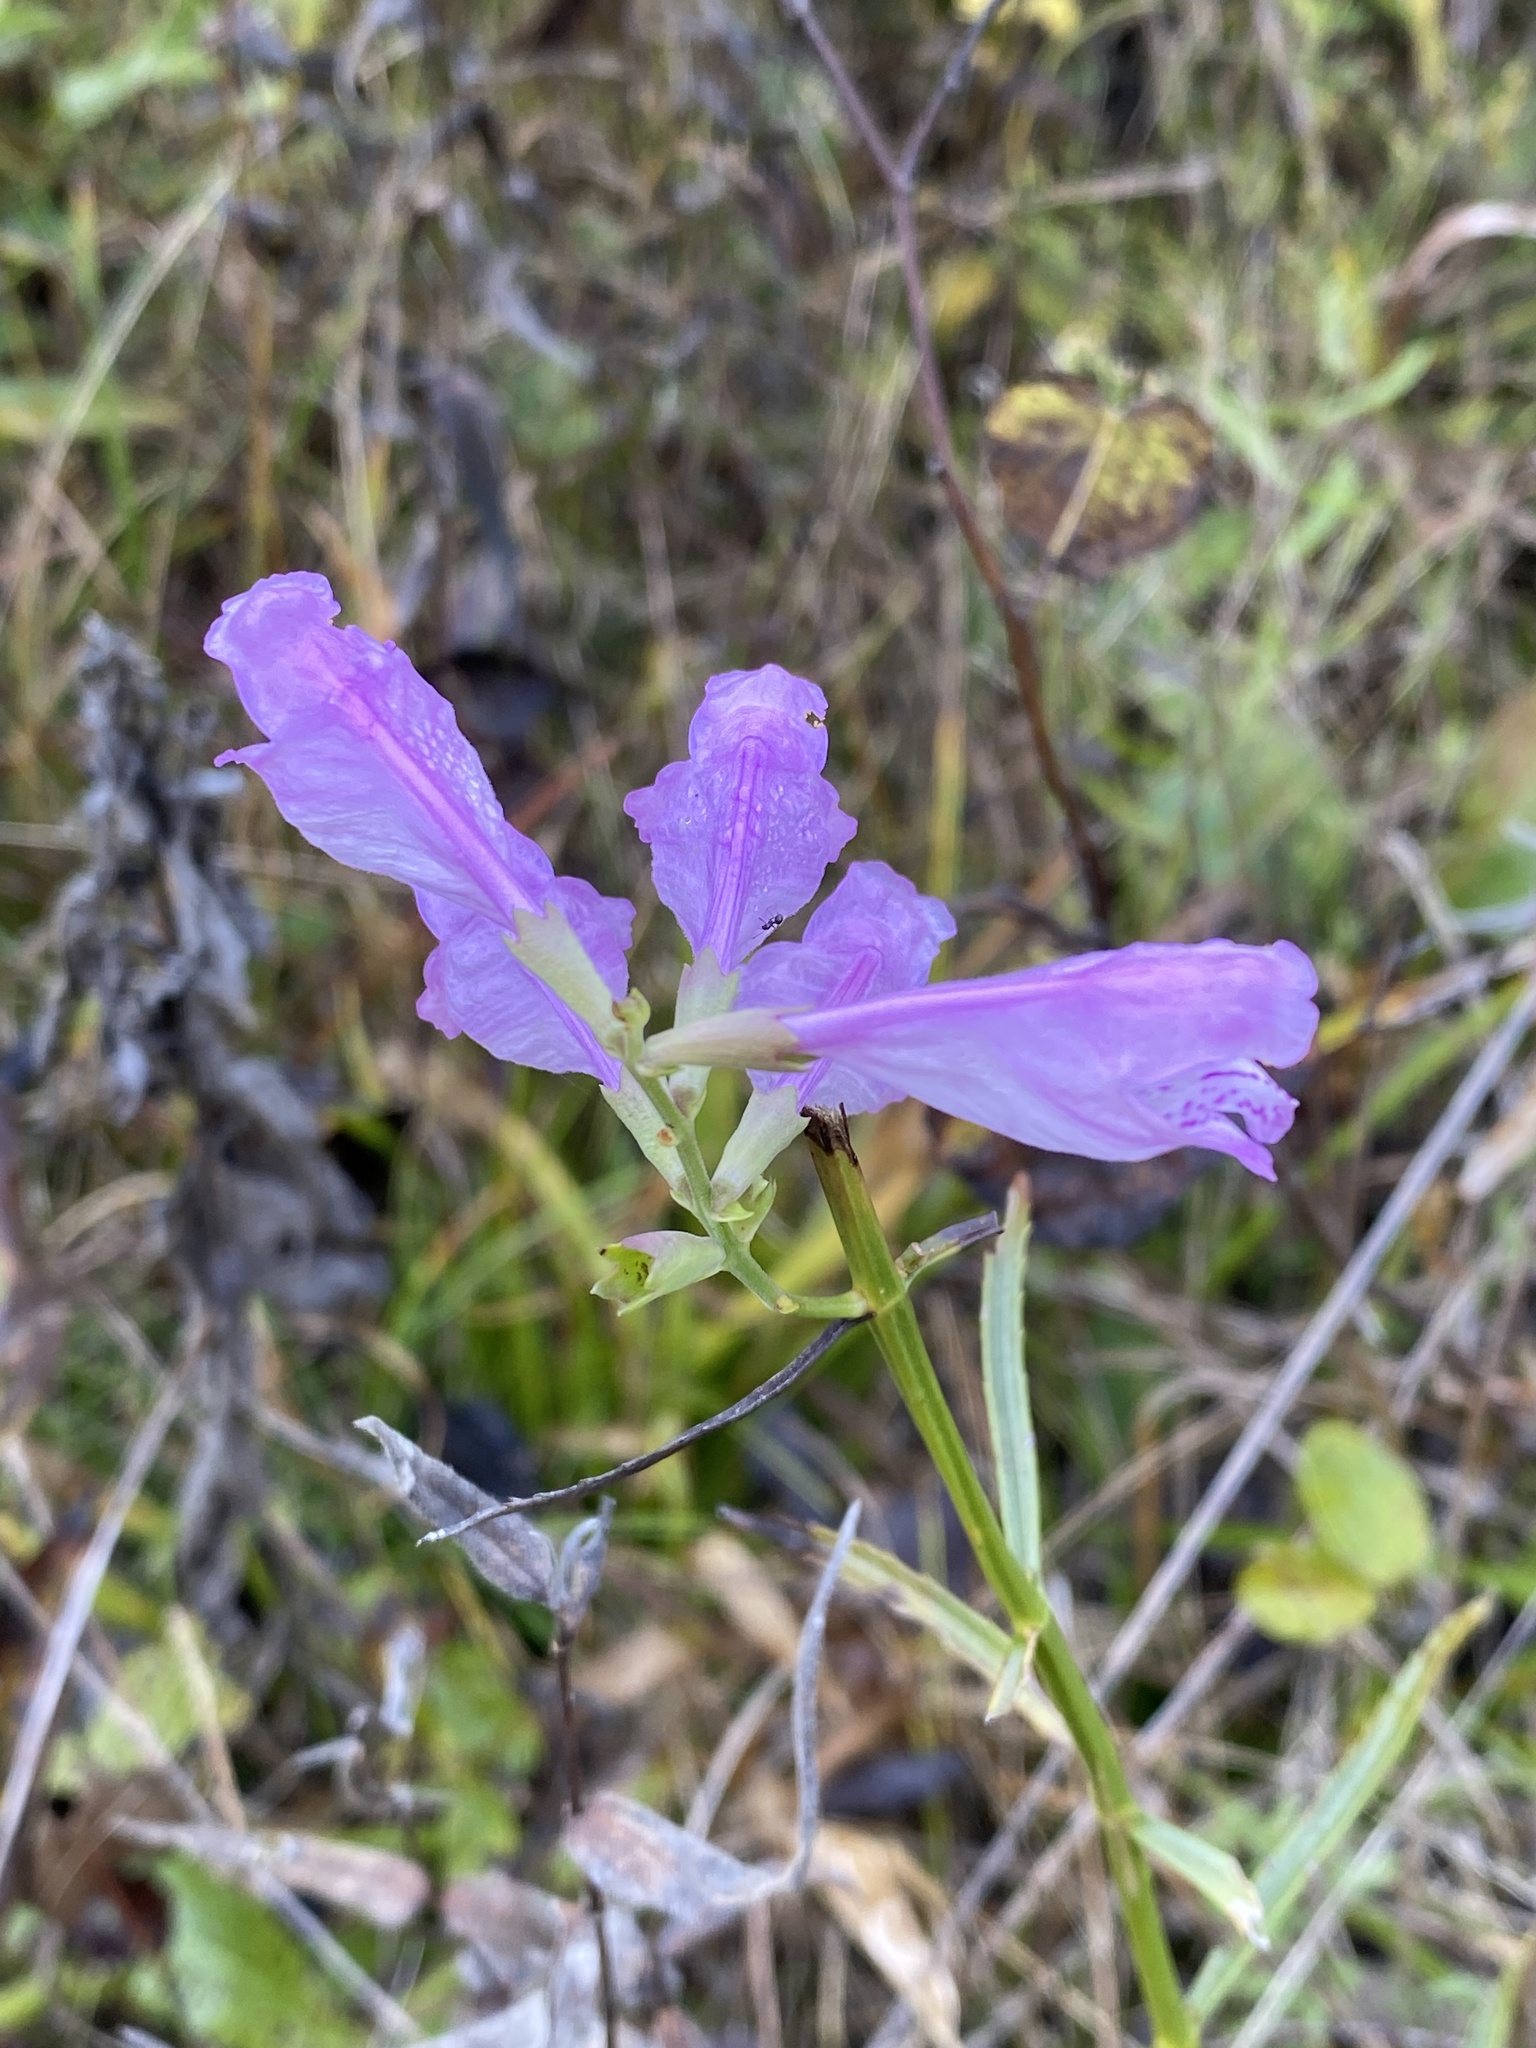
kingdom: Plantae
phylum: Tracheophyta
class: Magnoliopsida
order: Lamiales
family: Lamiaceae
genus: Physostegia
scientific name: Physostegia virginiana
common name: Obedient-plant
